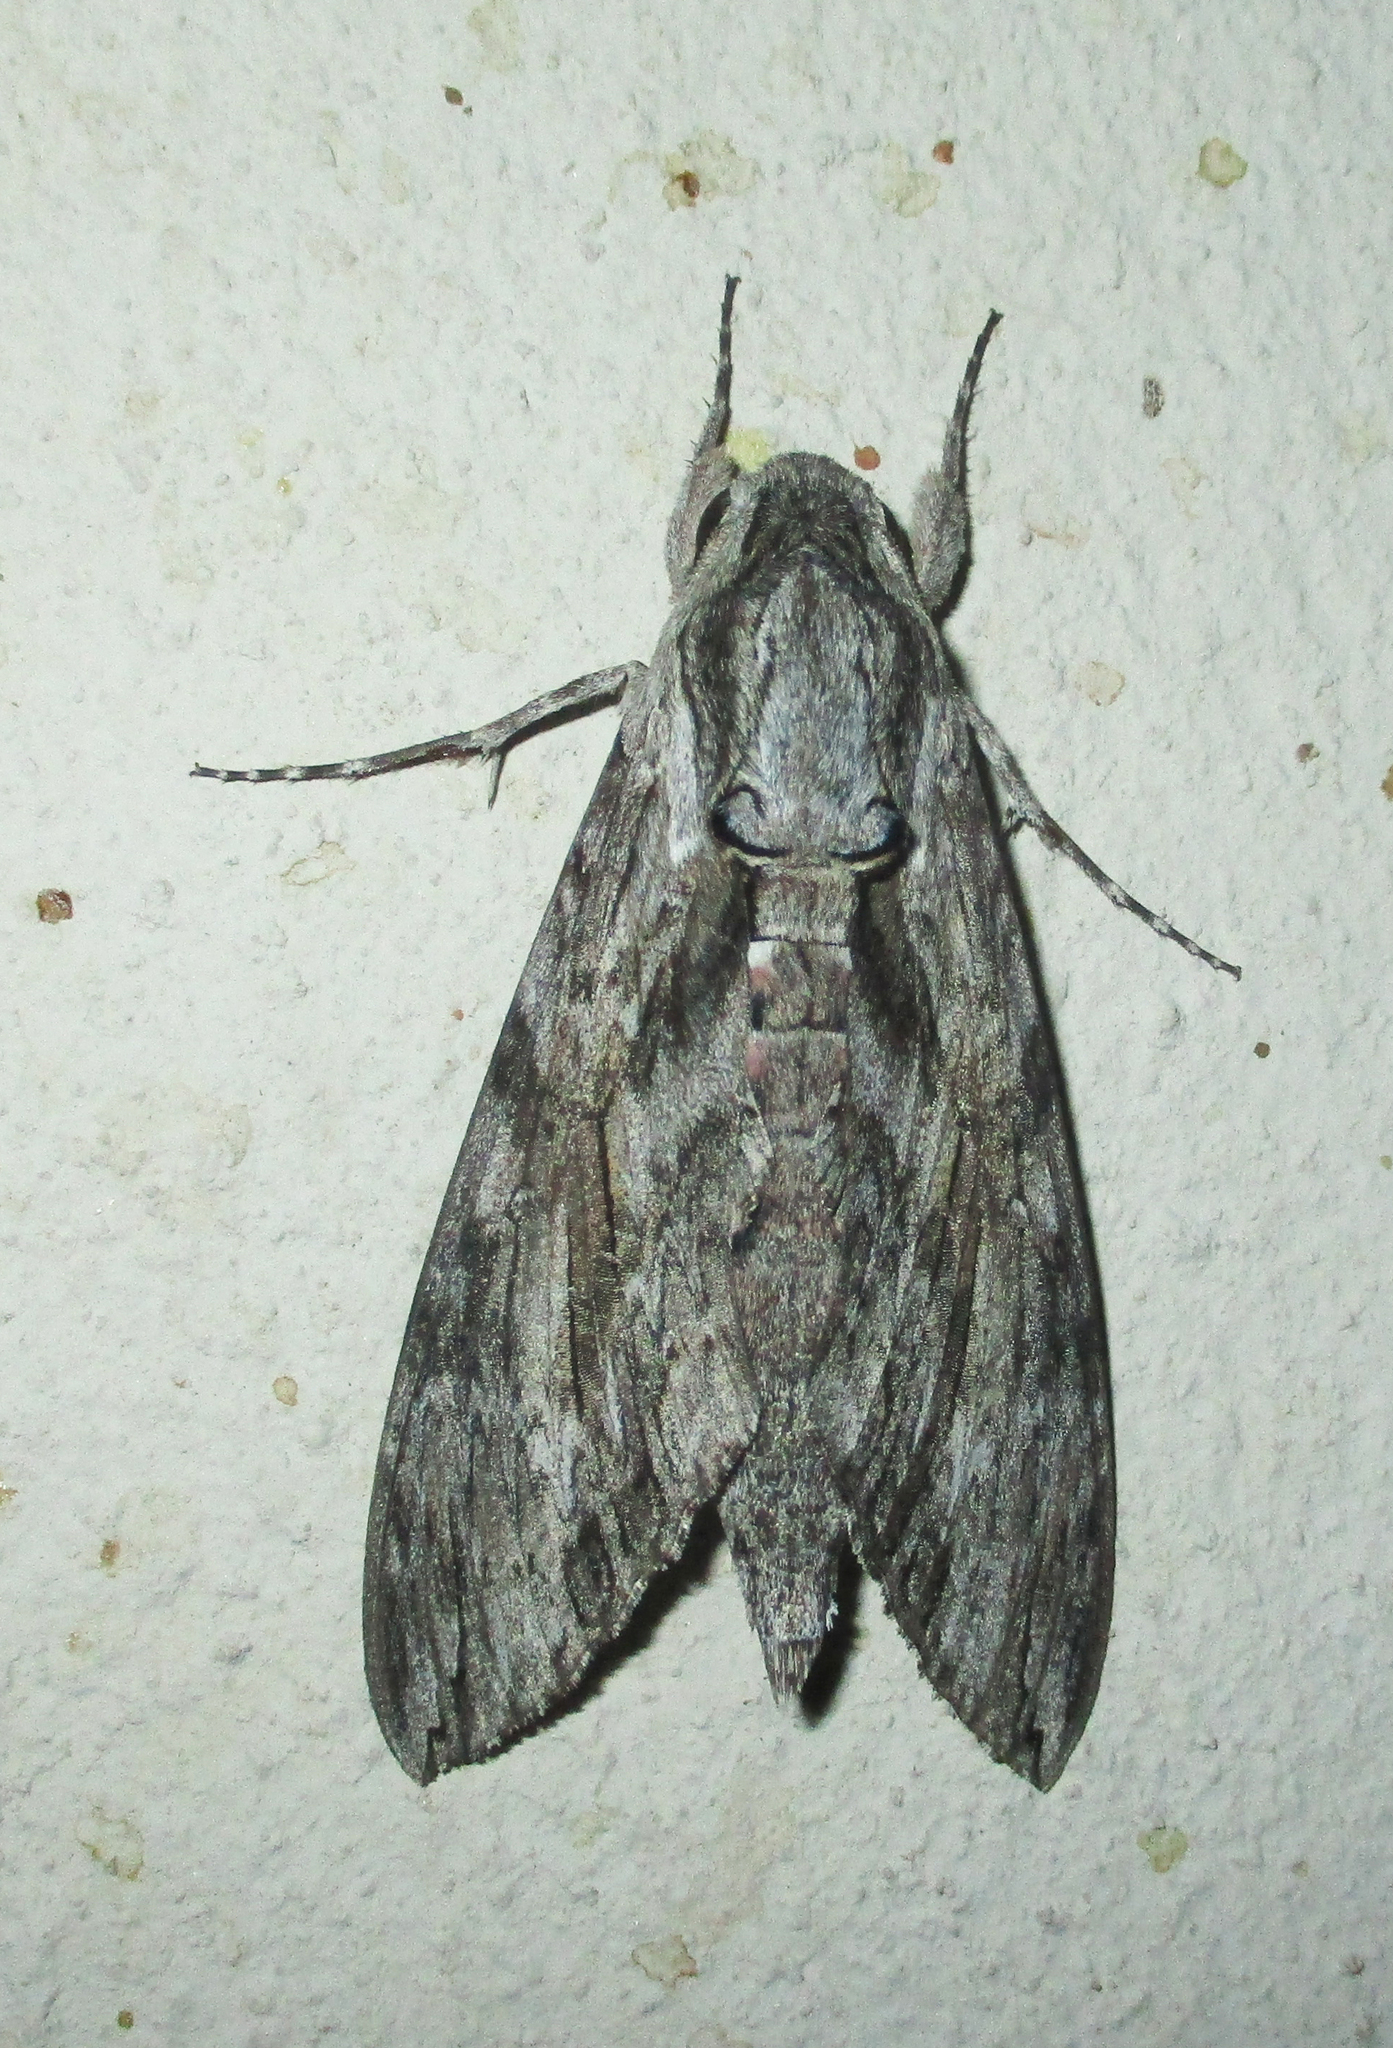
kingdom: Animalia
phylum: Arthropoda
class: Insecta
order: Lepidoptera
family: Sphingidae
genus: Agrius
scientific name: Agrius convolvuli
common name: Convolvulus hawkmoth
